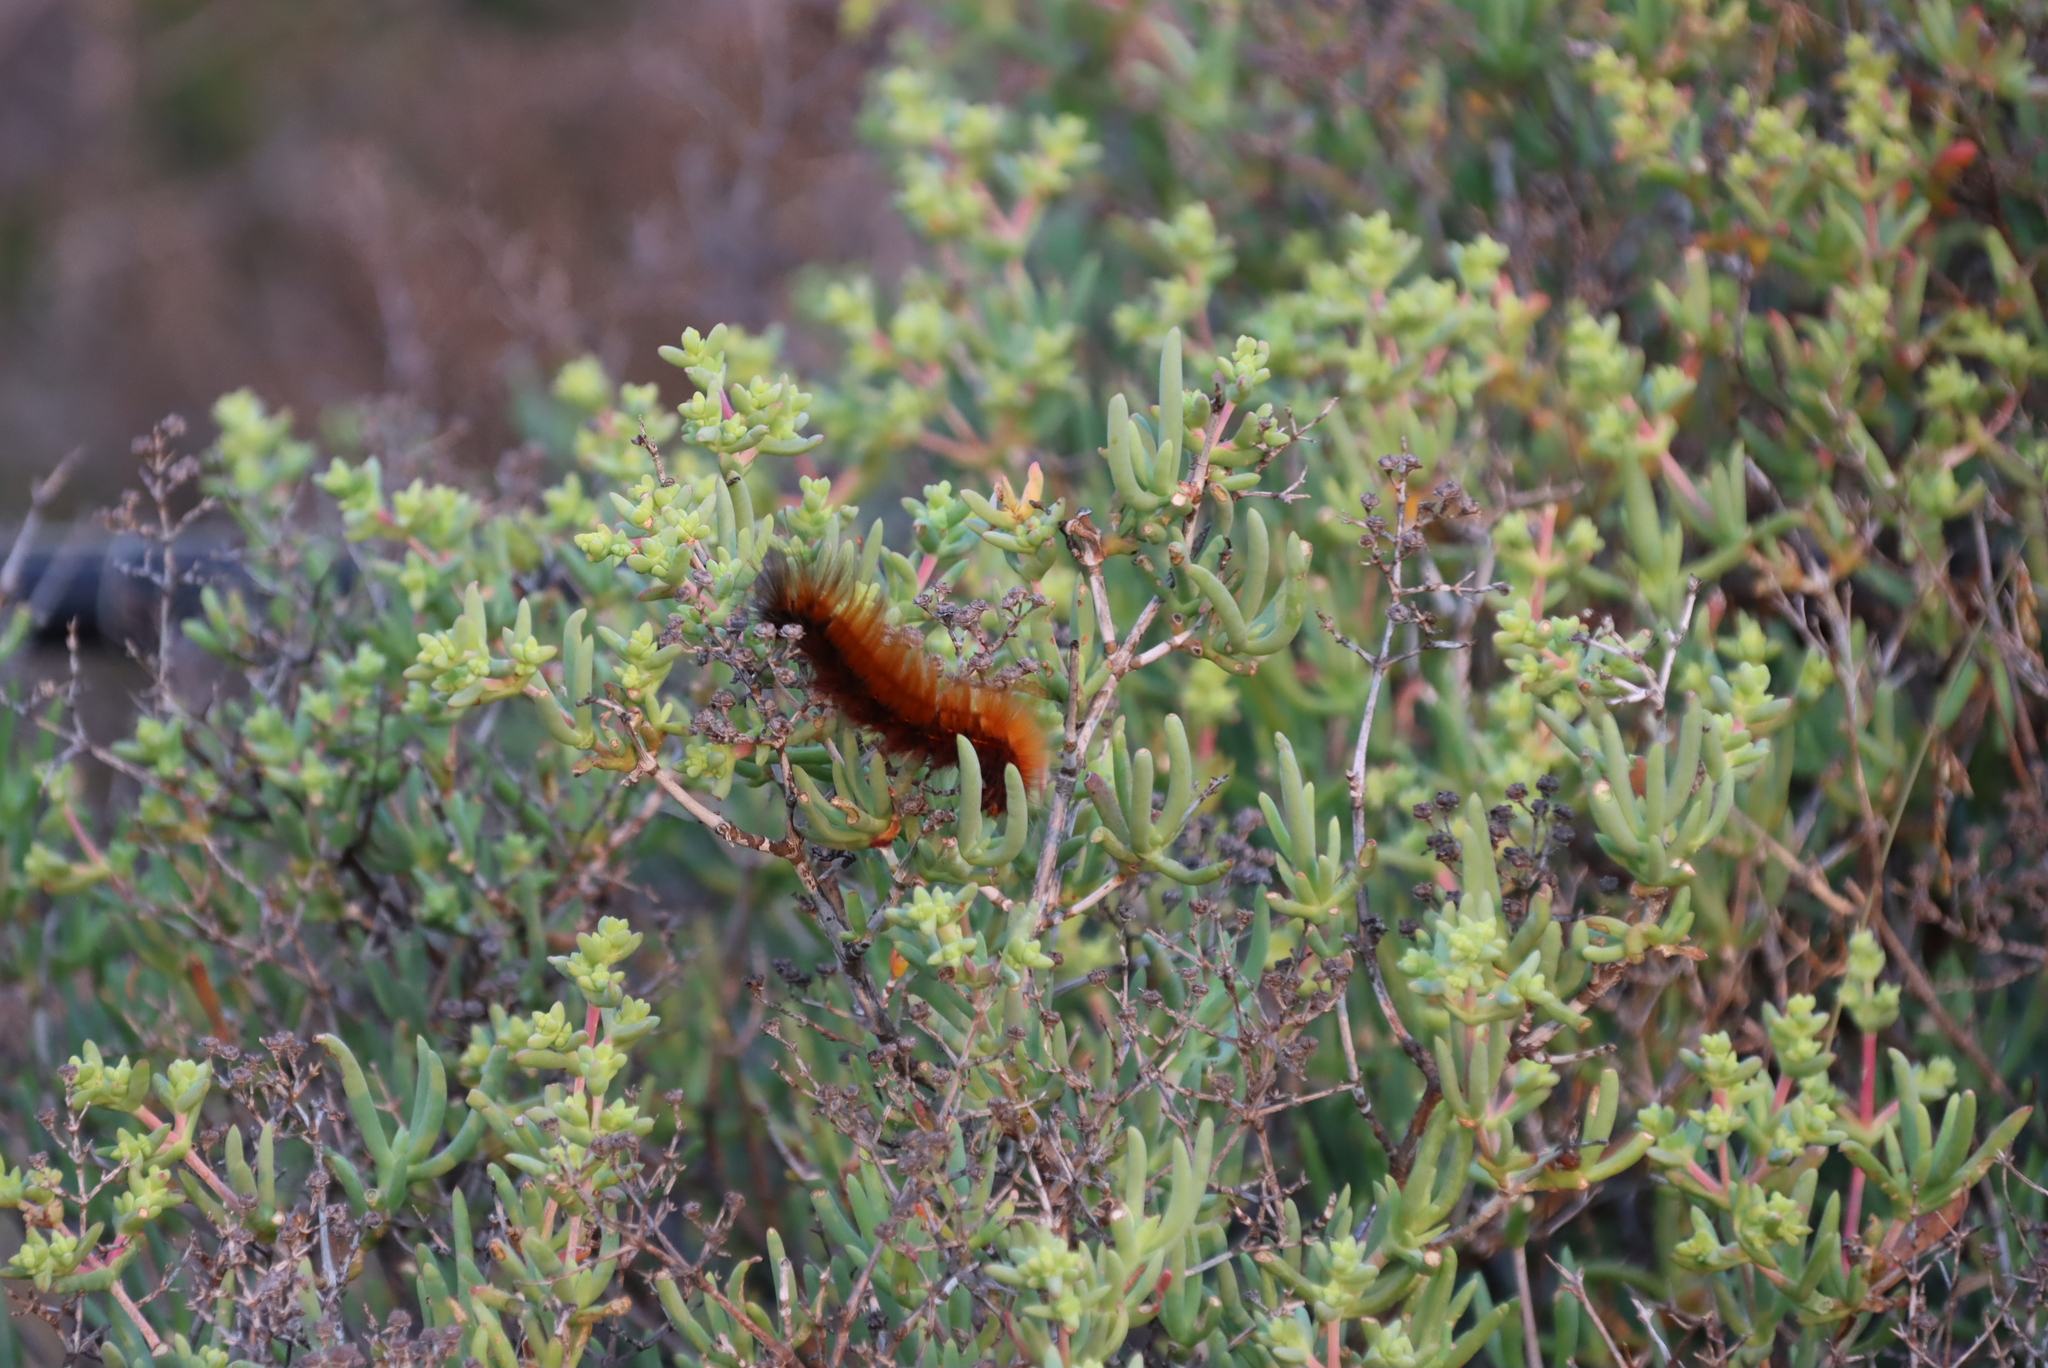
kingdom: Animalia
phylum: Arthropoda
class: Insecta
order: Lepidoptera
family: Lasiocampidae
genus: Mesocelis
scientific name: Mesocelis monticola
